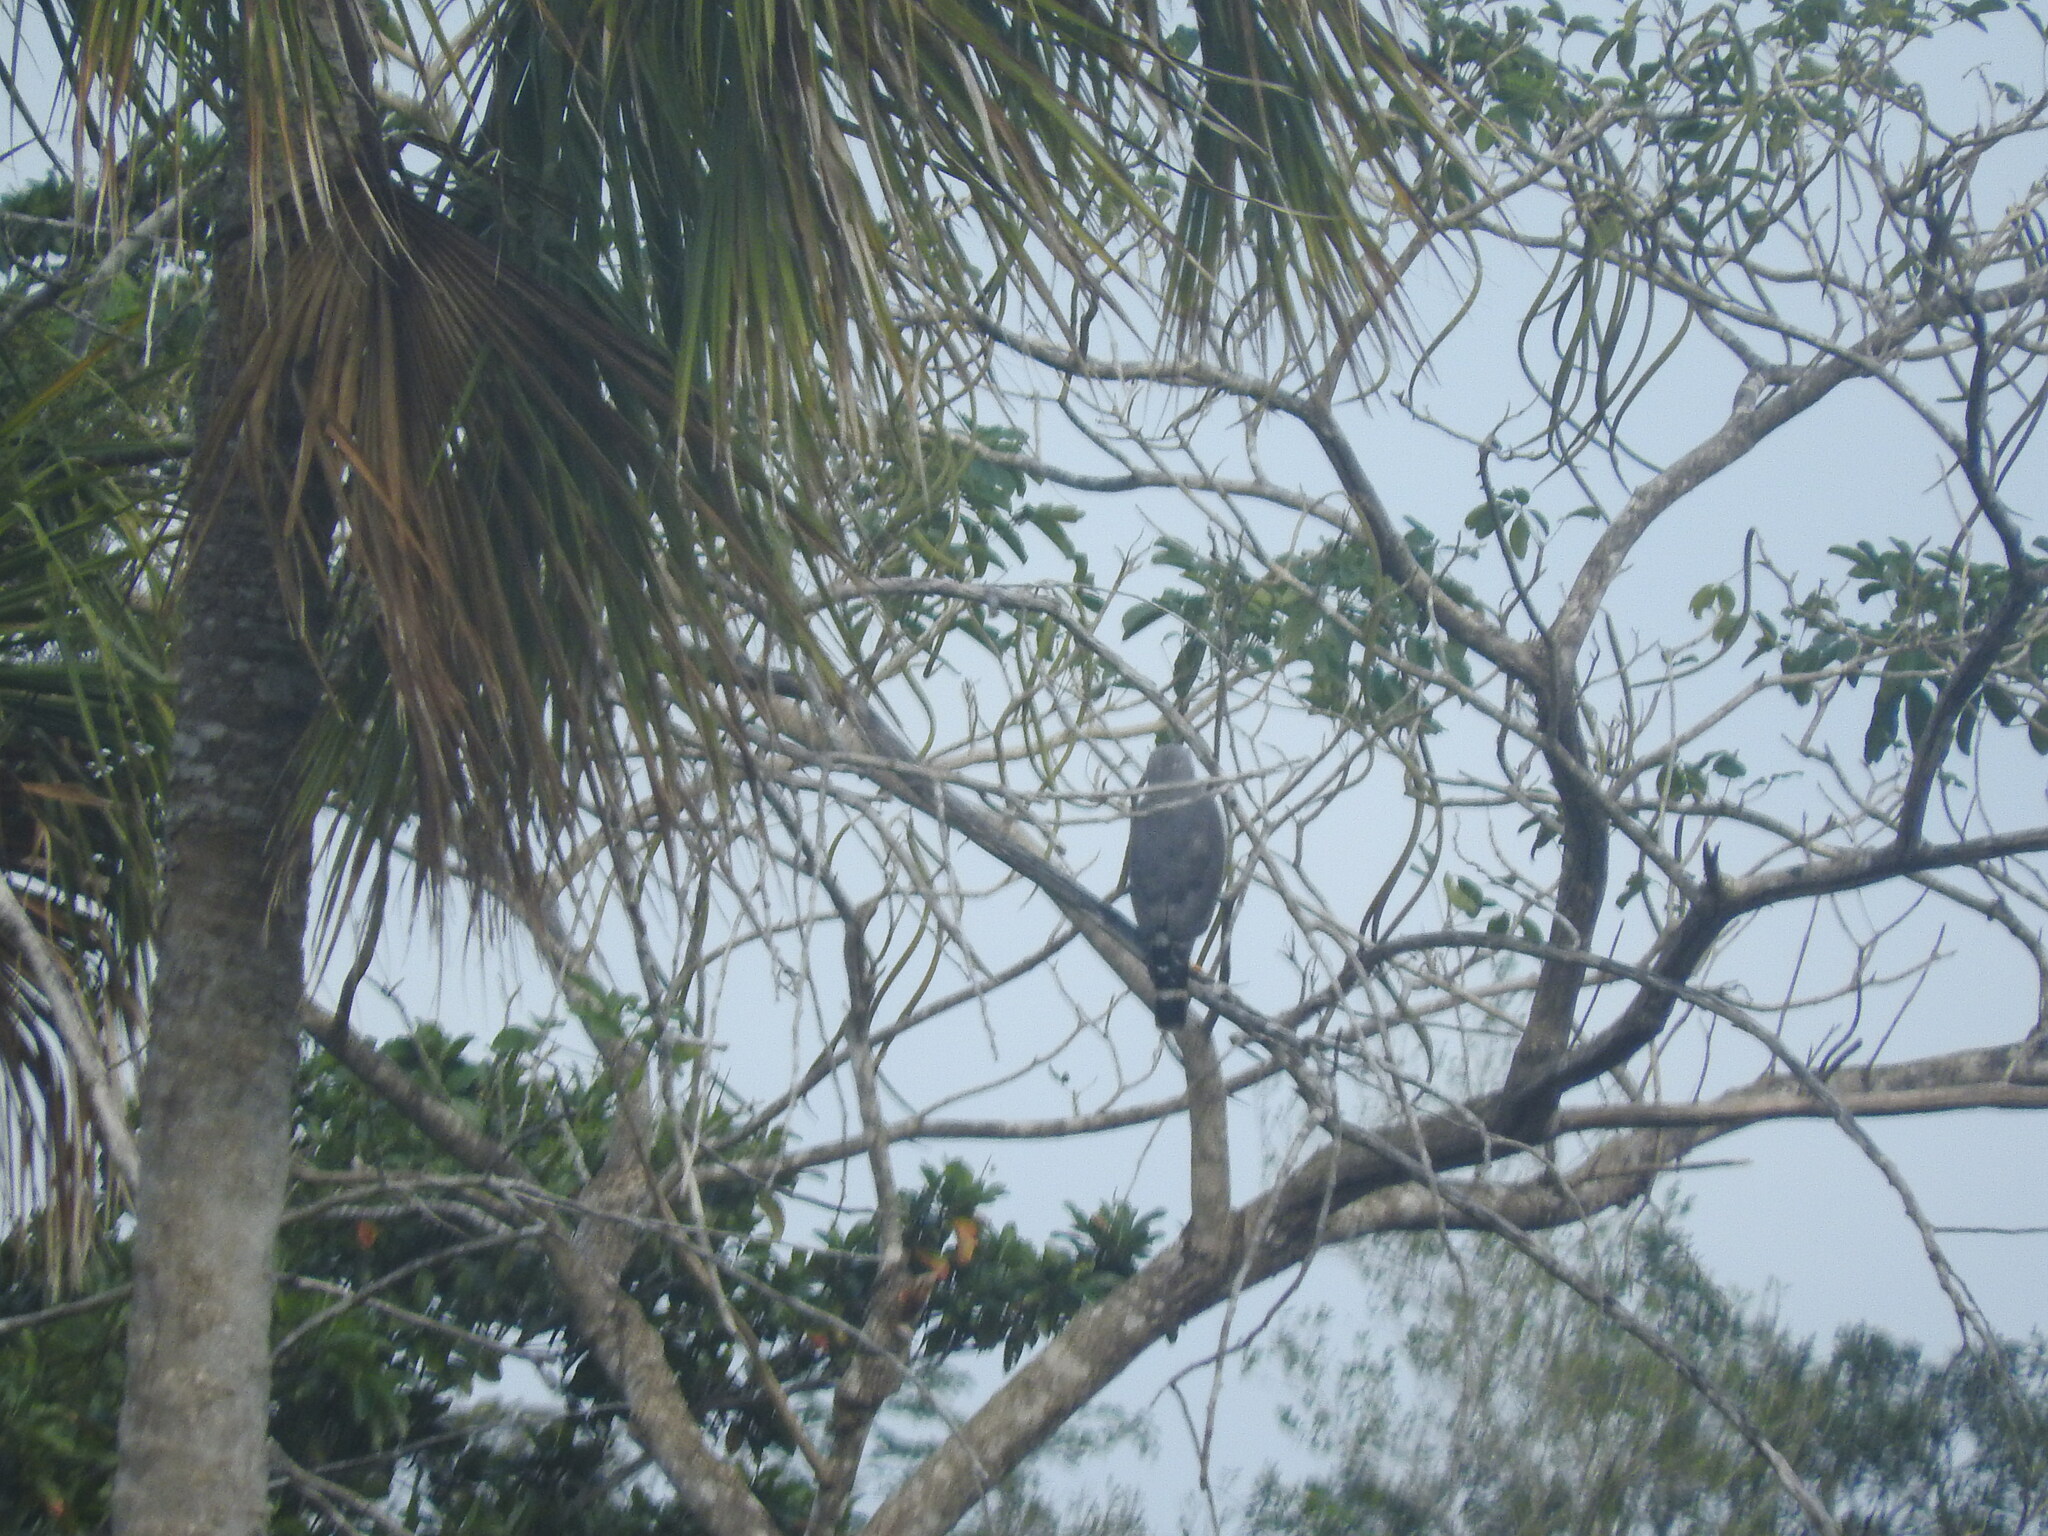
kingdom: Animalia
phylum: Chordata
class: Aves
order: Accipitriformes
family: Accipitridae
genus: Geranospiza
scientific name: Geranospiza caerulescens
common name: Crane hawk
